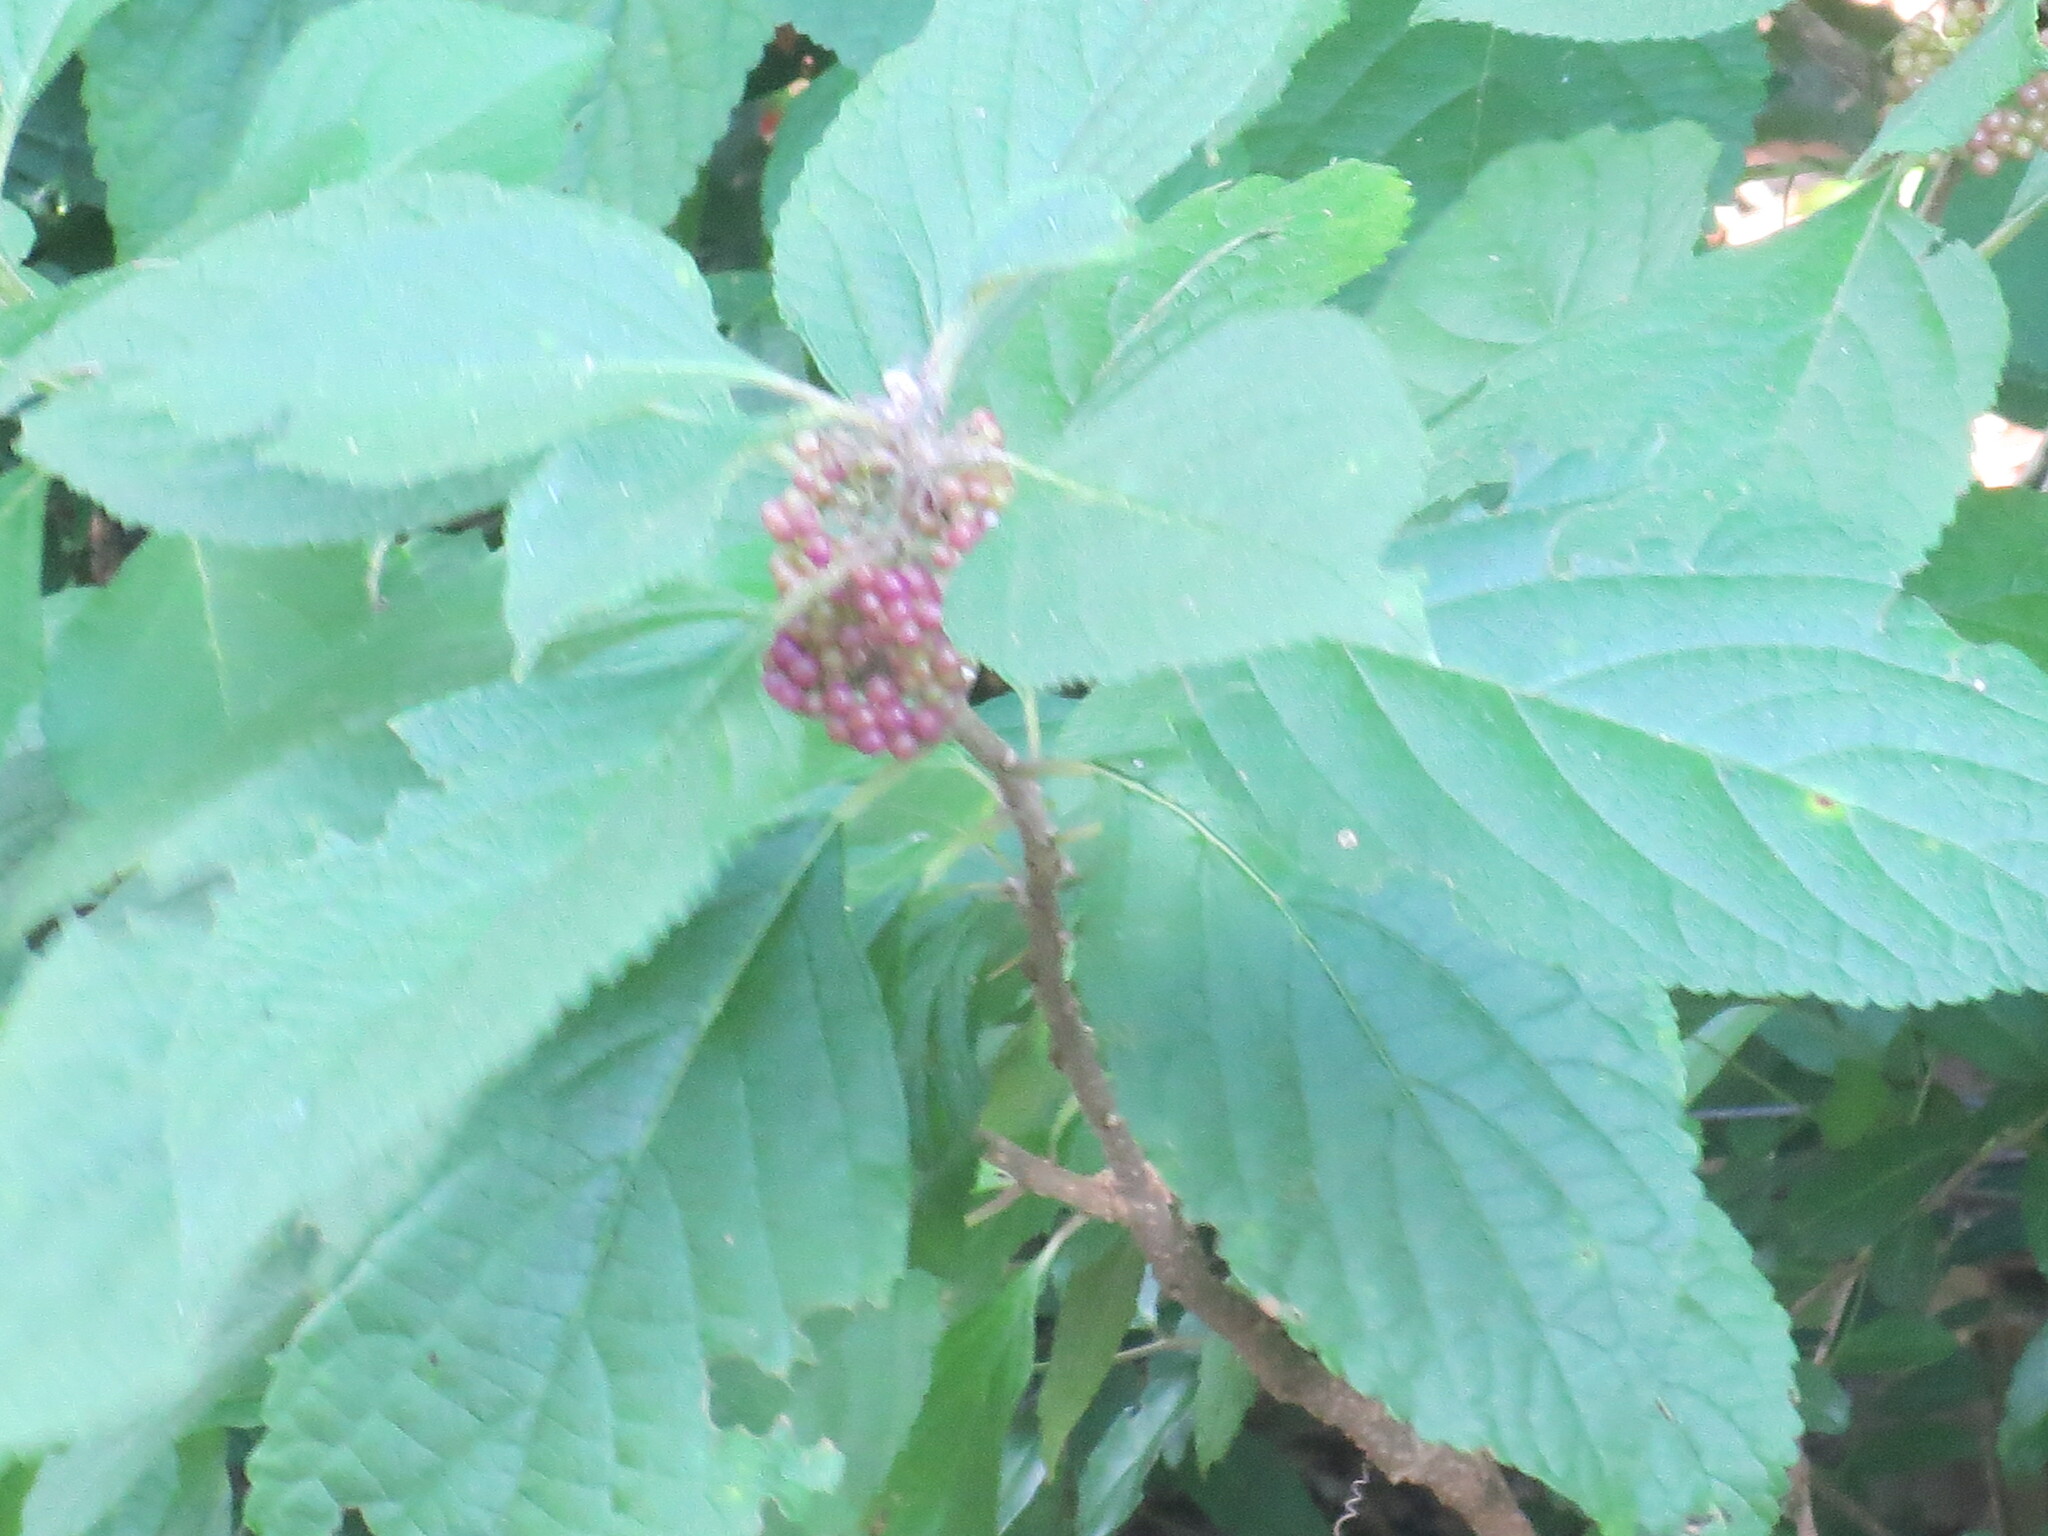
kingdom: Plantae
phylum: Tracheophyta
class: Magnoliopsida
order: Lamiales
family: Lamiaceae
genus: Callicarpa
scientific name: Callicarpa americana
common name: American beautyberry
